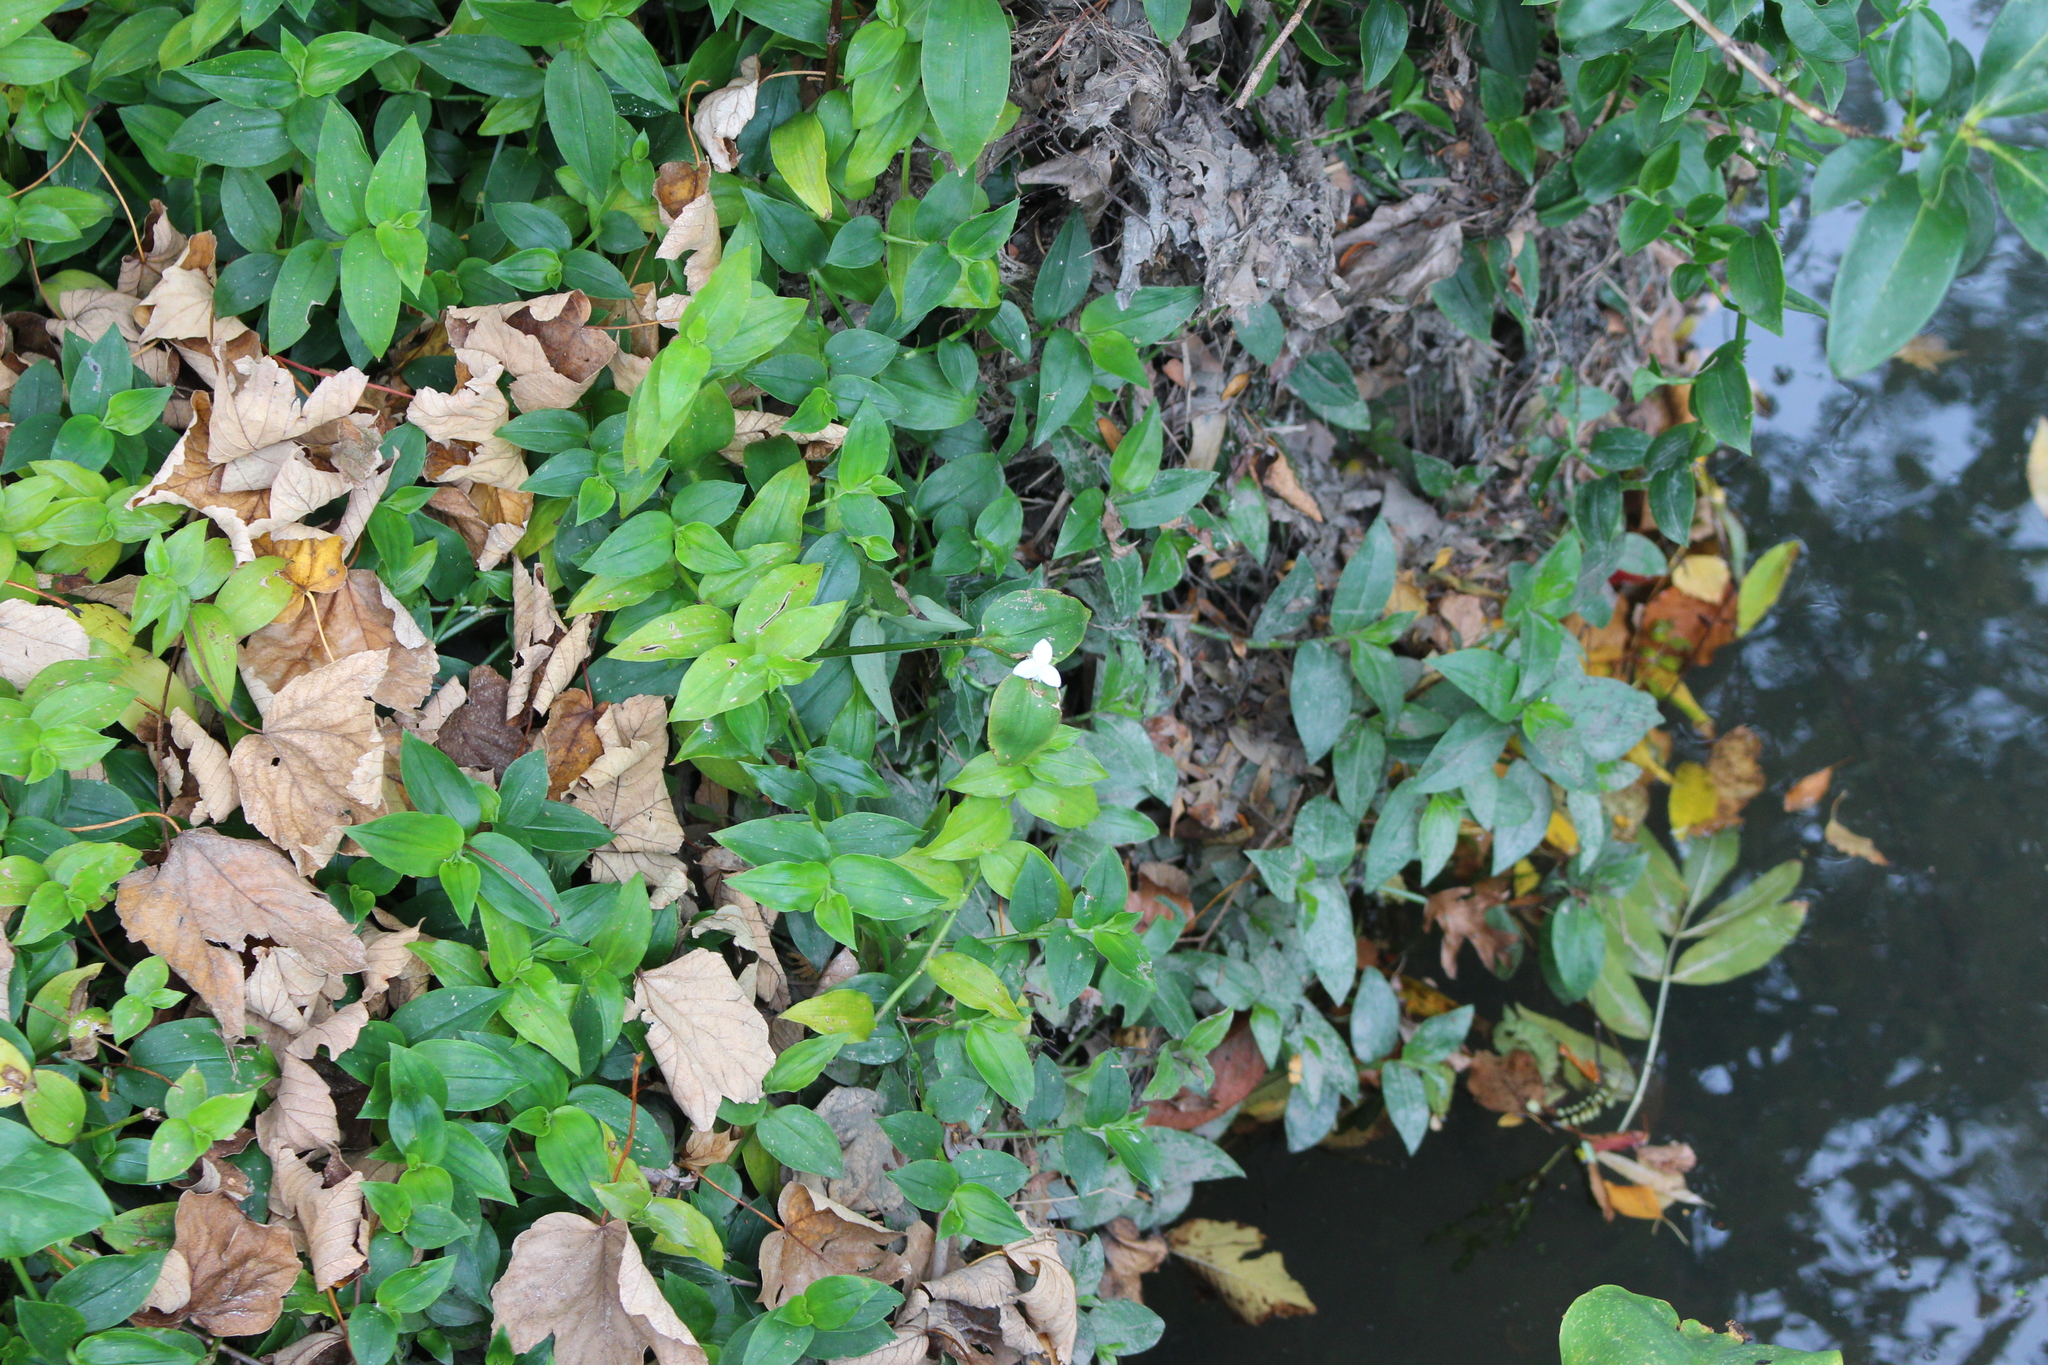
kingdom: Plantae
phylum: Tracheophyta
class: Liliopsida
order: Commelinales
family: Commelinaceae
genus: Tradescantia
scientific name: Tradescantia fluminensis
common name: Wandering-jew
